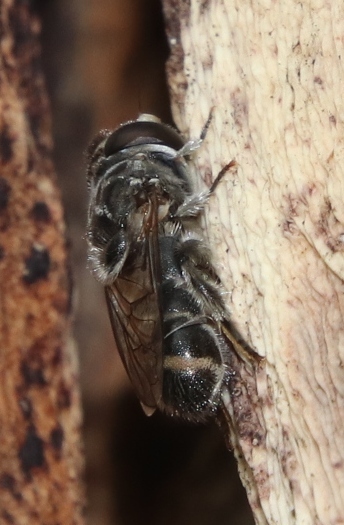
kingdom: Animalia
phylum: Arthropoda
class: Insecta
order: Diptera
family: Syrphidae
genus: Eumerus
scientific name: Eumerus obliquus
